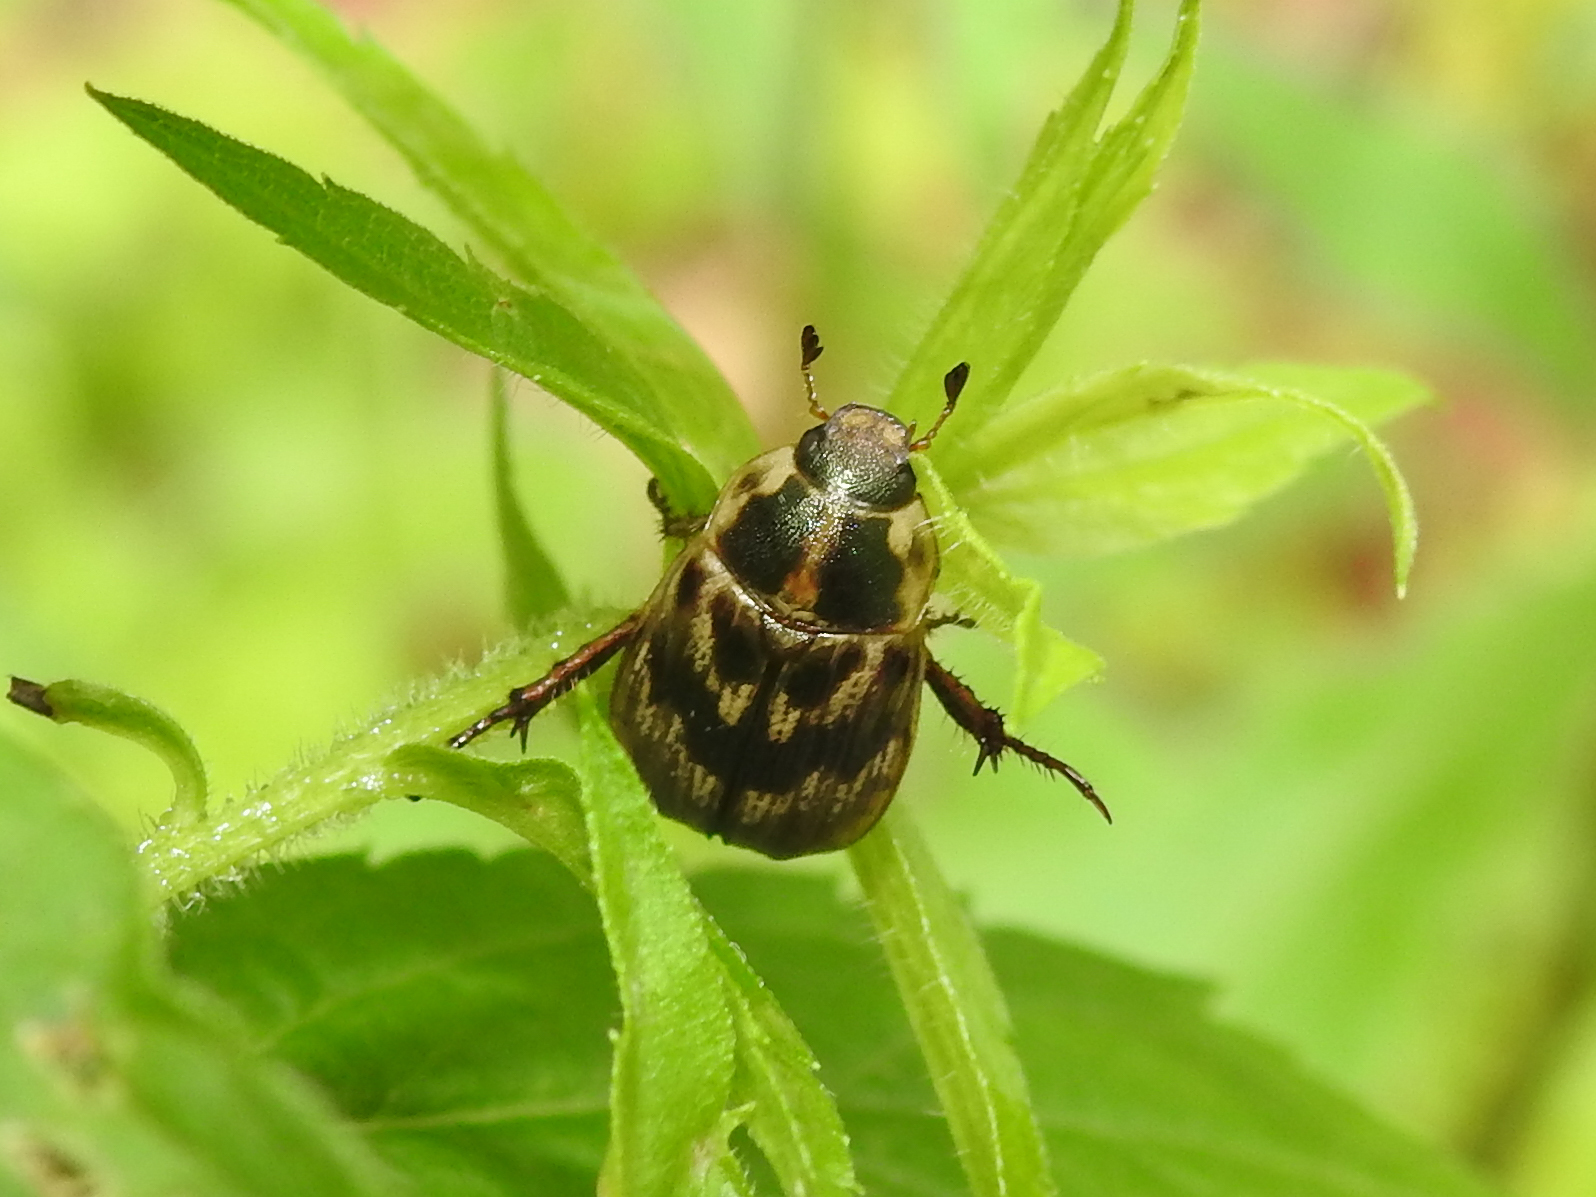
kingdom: Animalia
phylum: Arthropoda
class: Insecta
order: Coleoptera
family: Scarabaeidae
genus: Exomala
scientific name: Exomala orientalis
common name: Oriental beetle
